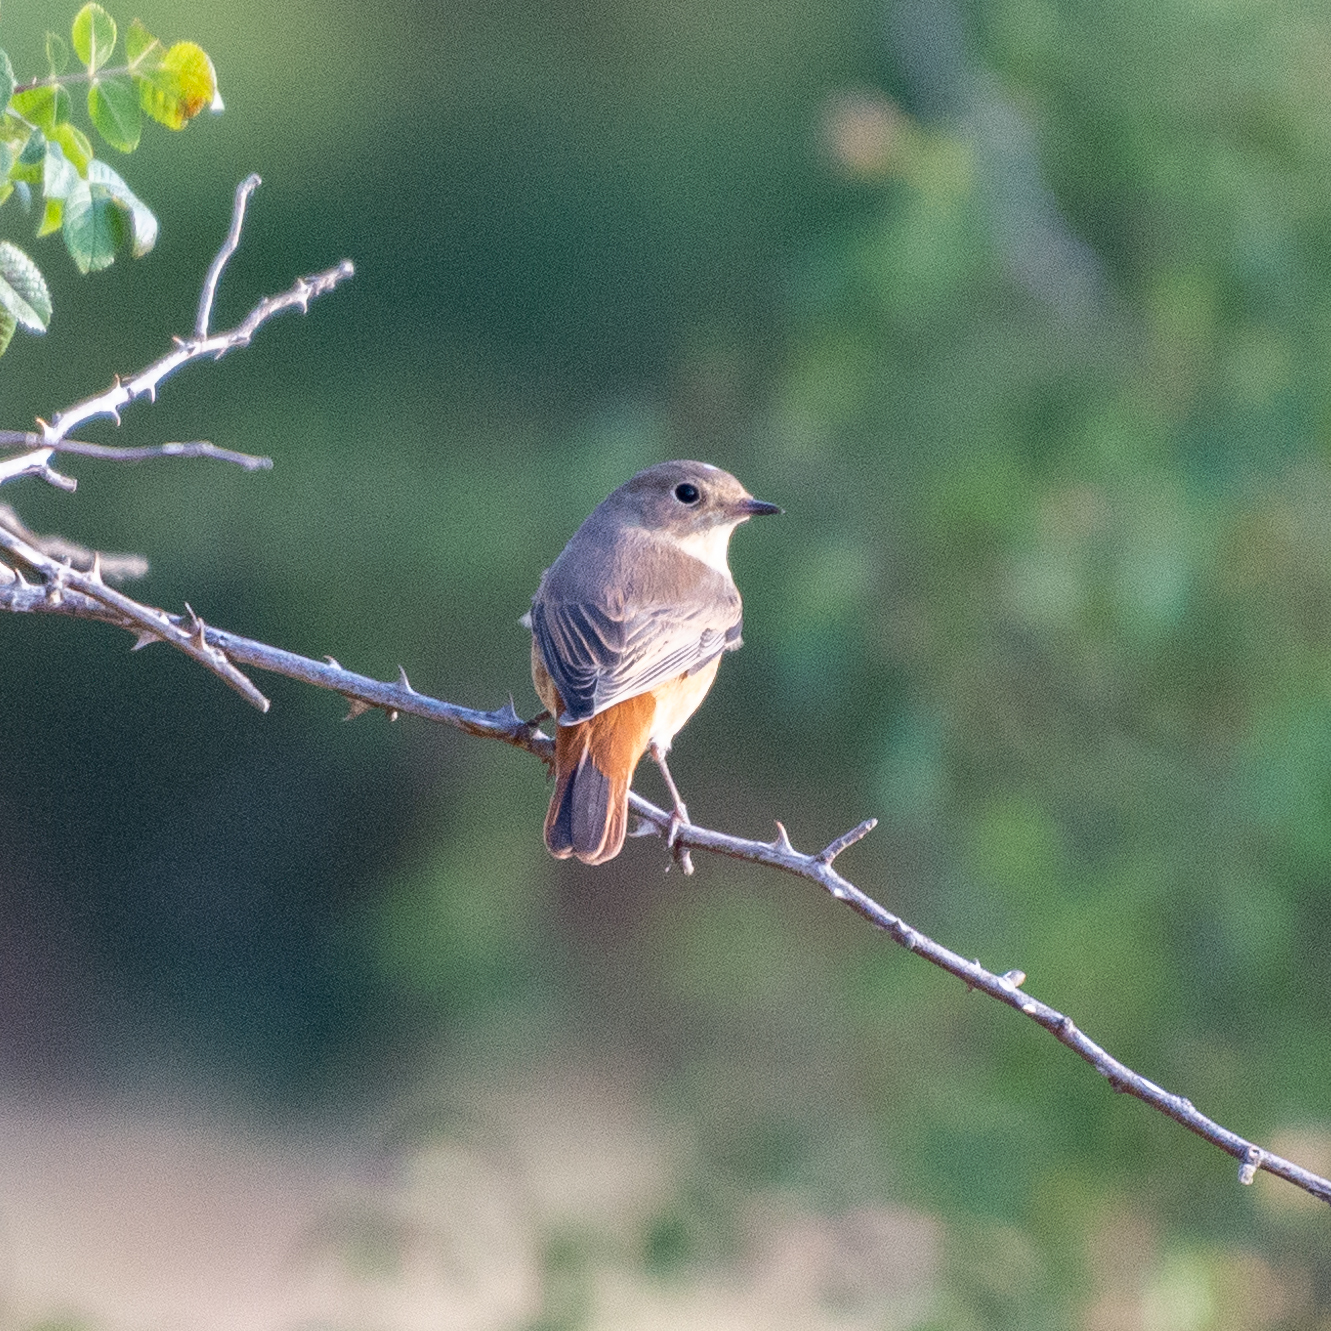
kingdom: Animalia
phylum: Chordata
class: Aves
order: Passeriformes
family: Muscicapidae
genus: Phoenicurus
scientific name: Phoenicurus phoenicurus
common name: Common redstart
